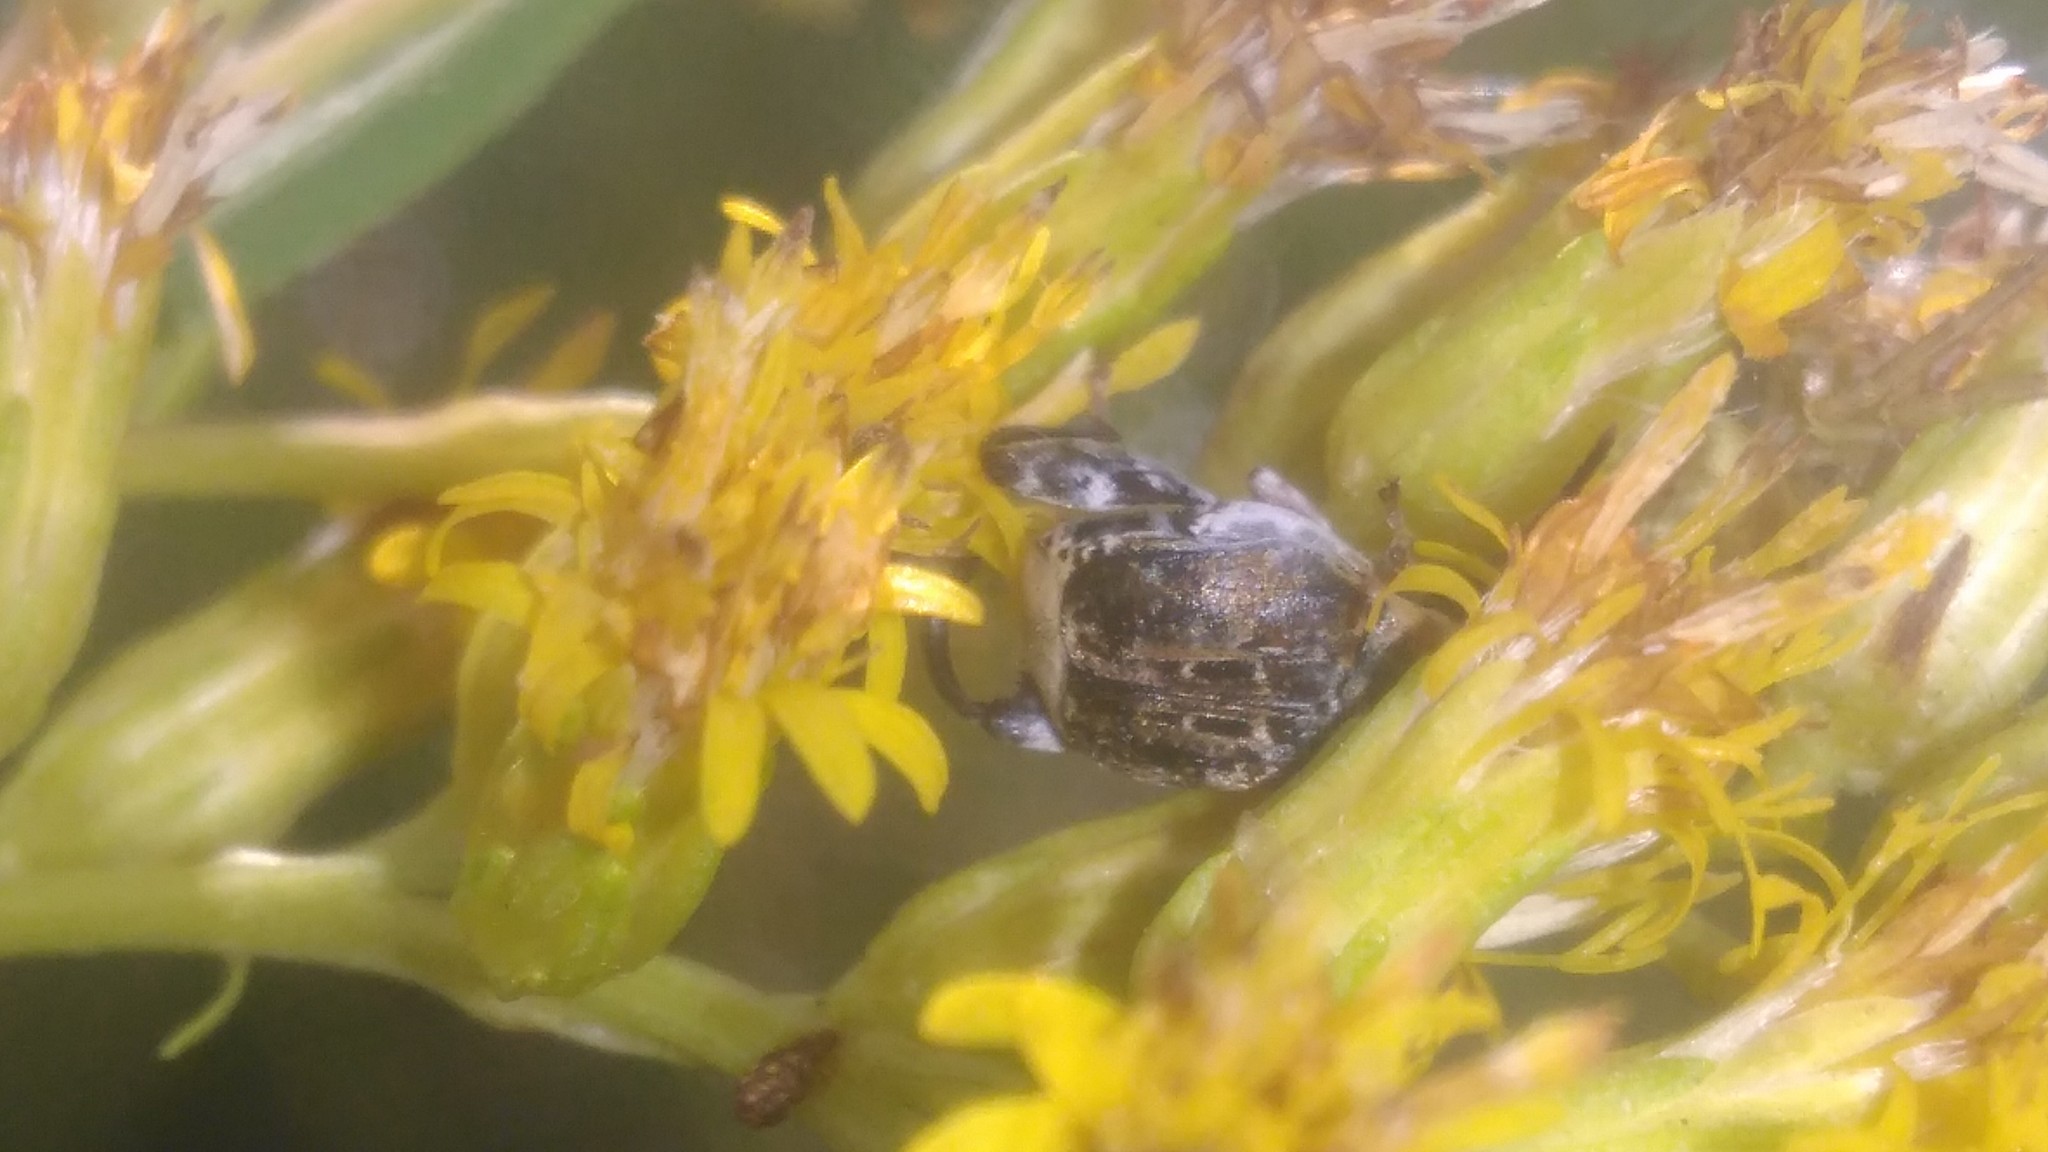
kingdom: Animalia
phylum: Arthropoda
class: Insecta
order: Coleoptera
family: Chrysomelidae
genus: Penthobruchus
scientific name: Penthobruchus
